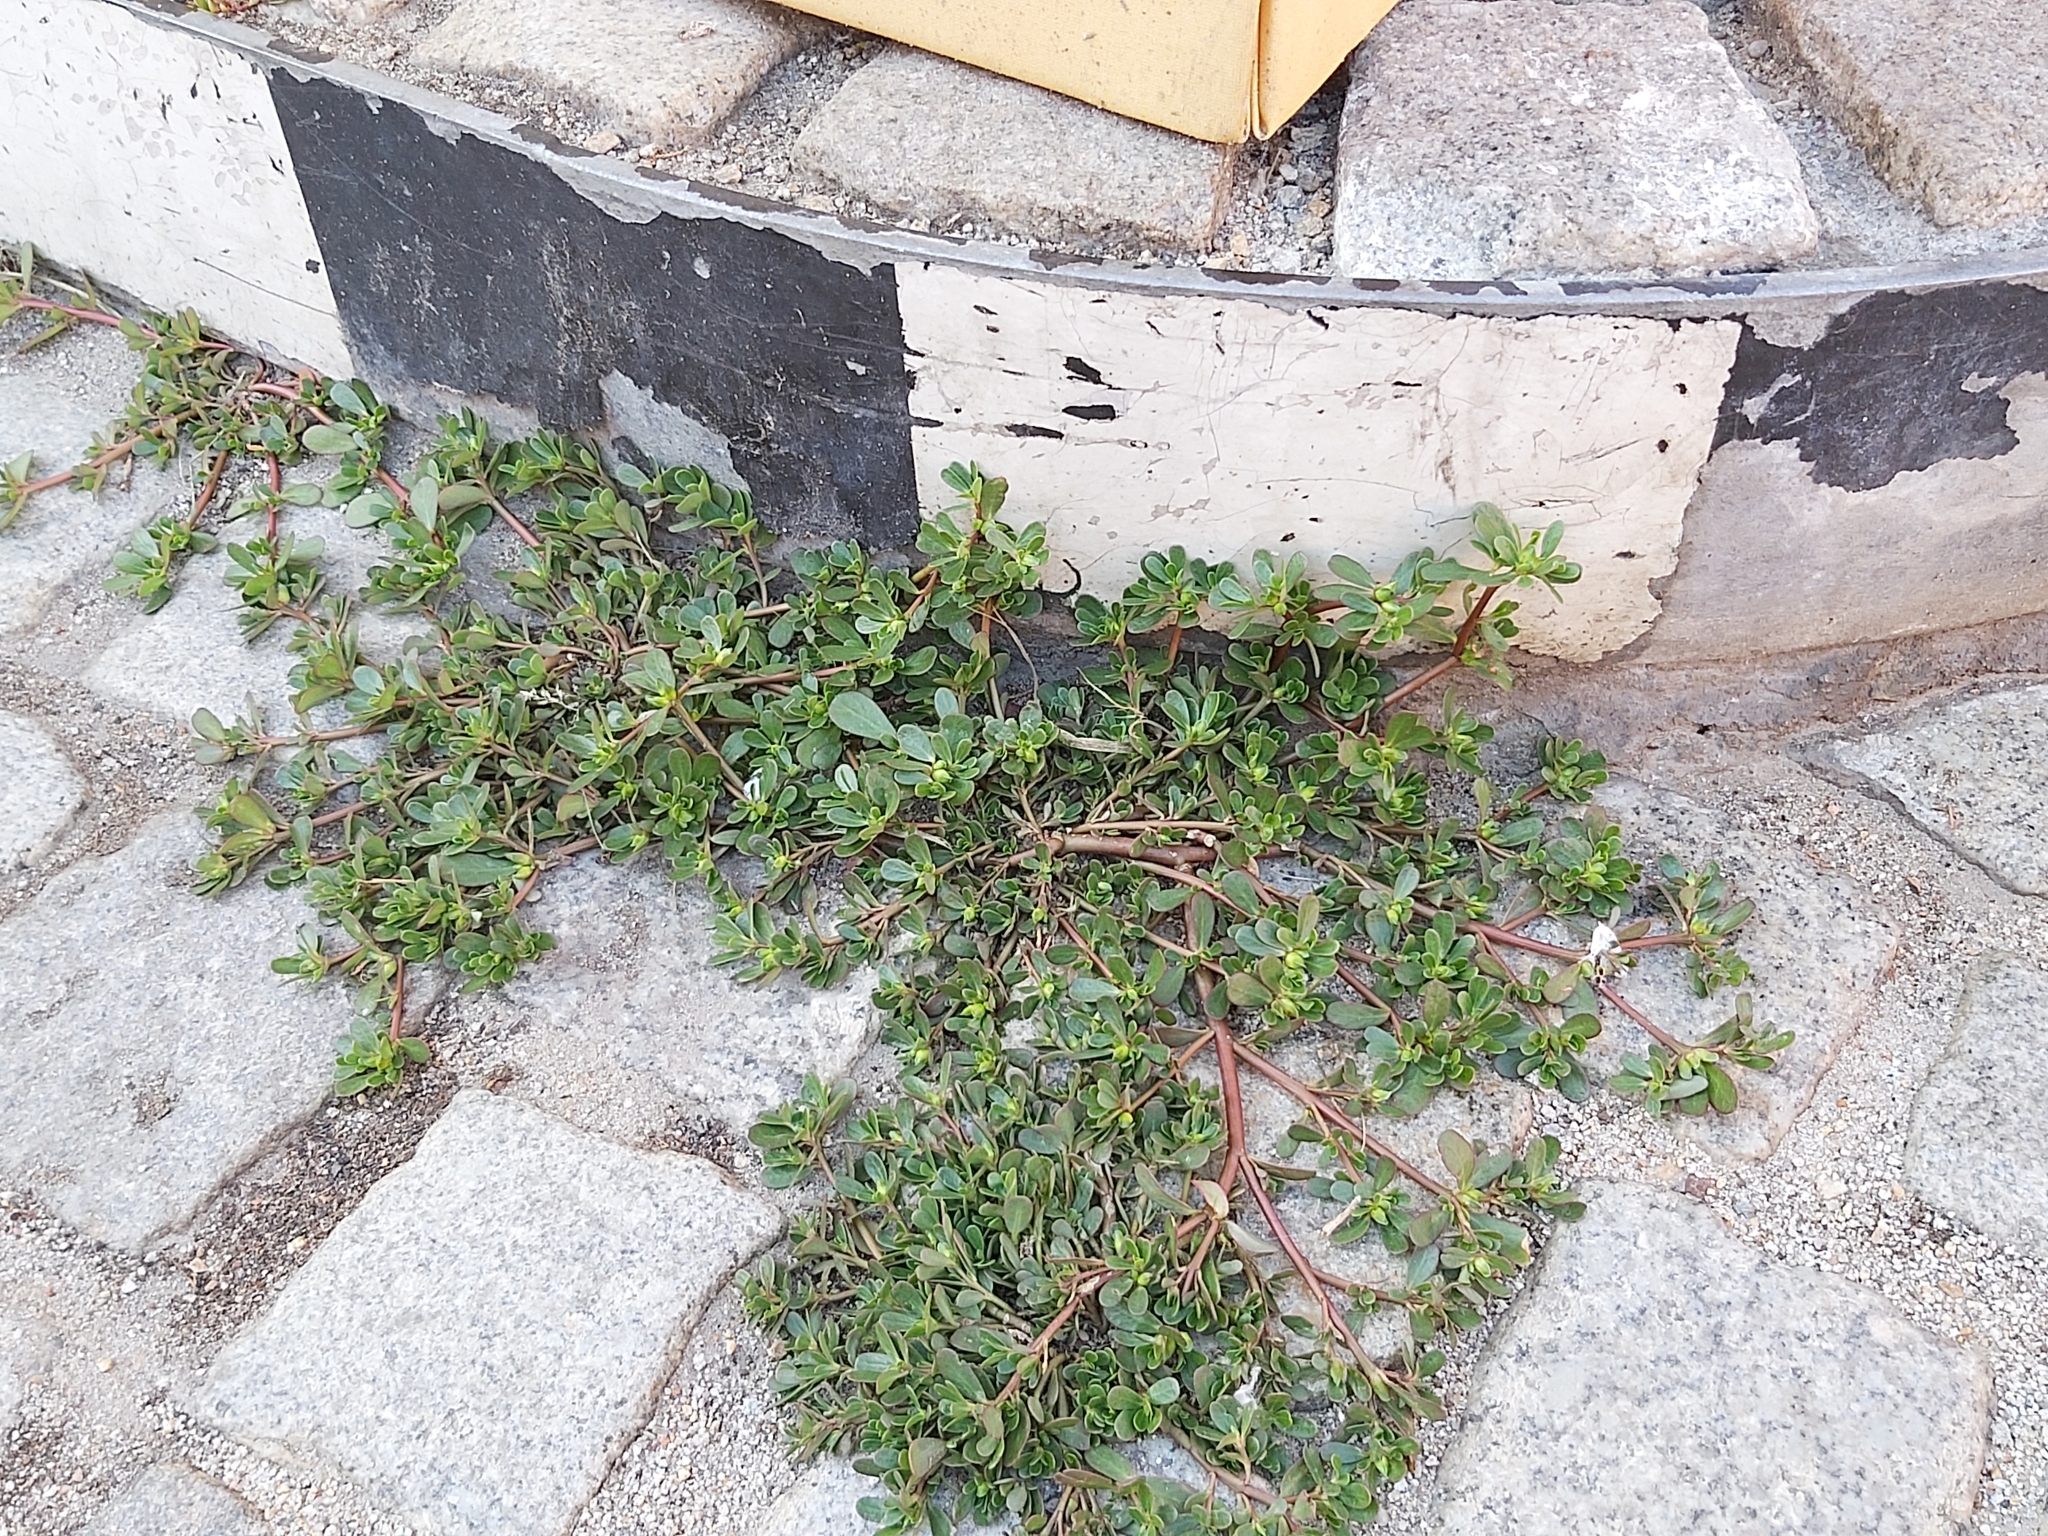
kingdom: Plantae
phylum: Tracheophyta
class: Magnoliopsida
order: Caryophyllales
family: Portulacaceae
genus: Portulaca
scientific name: Portulaca oleracea
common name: Common purslane
